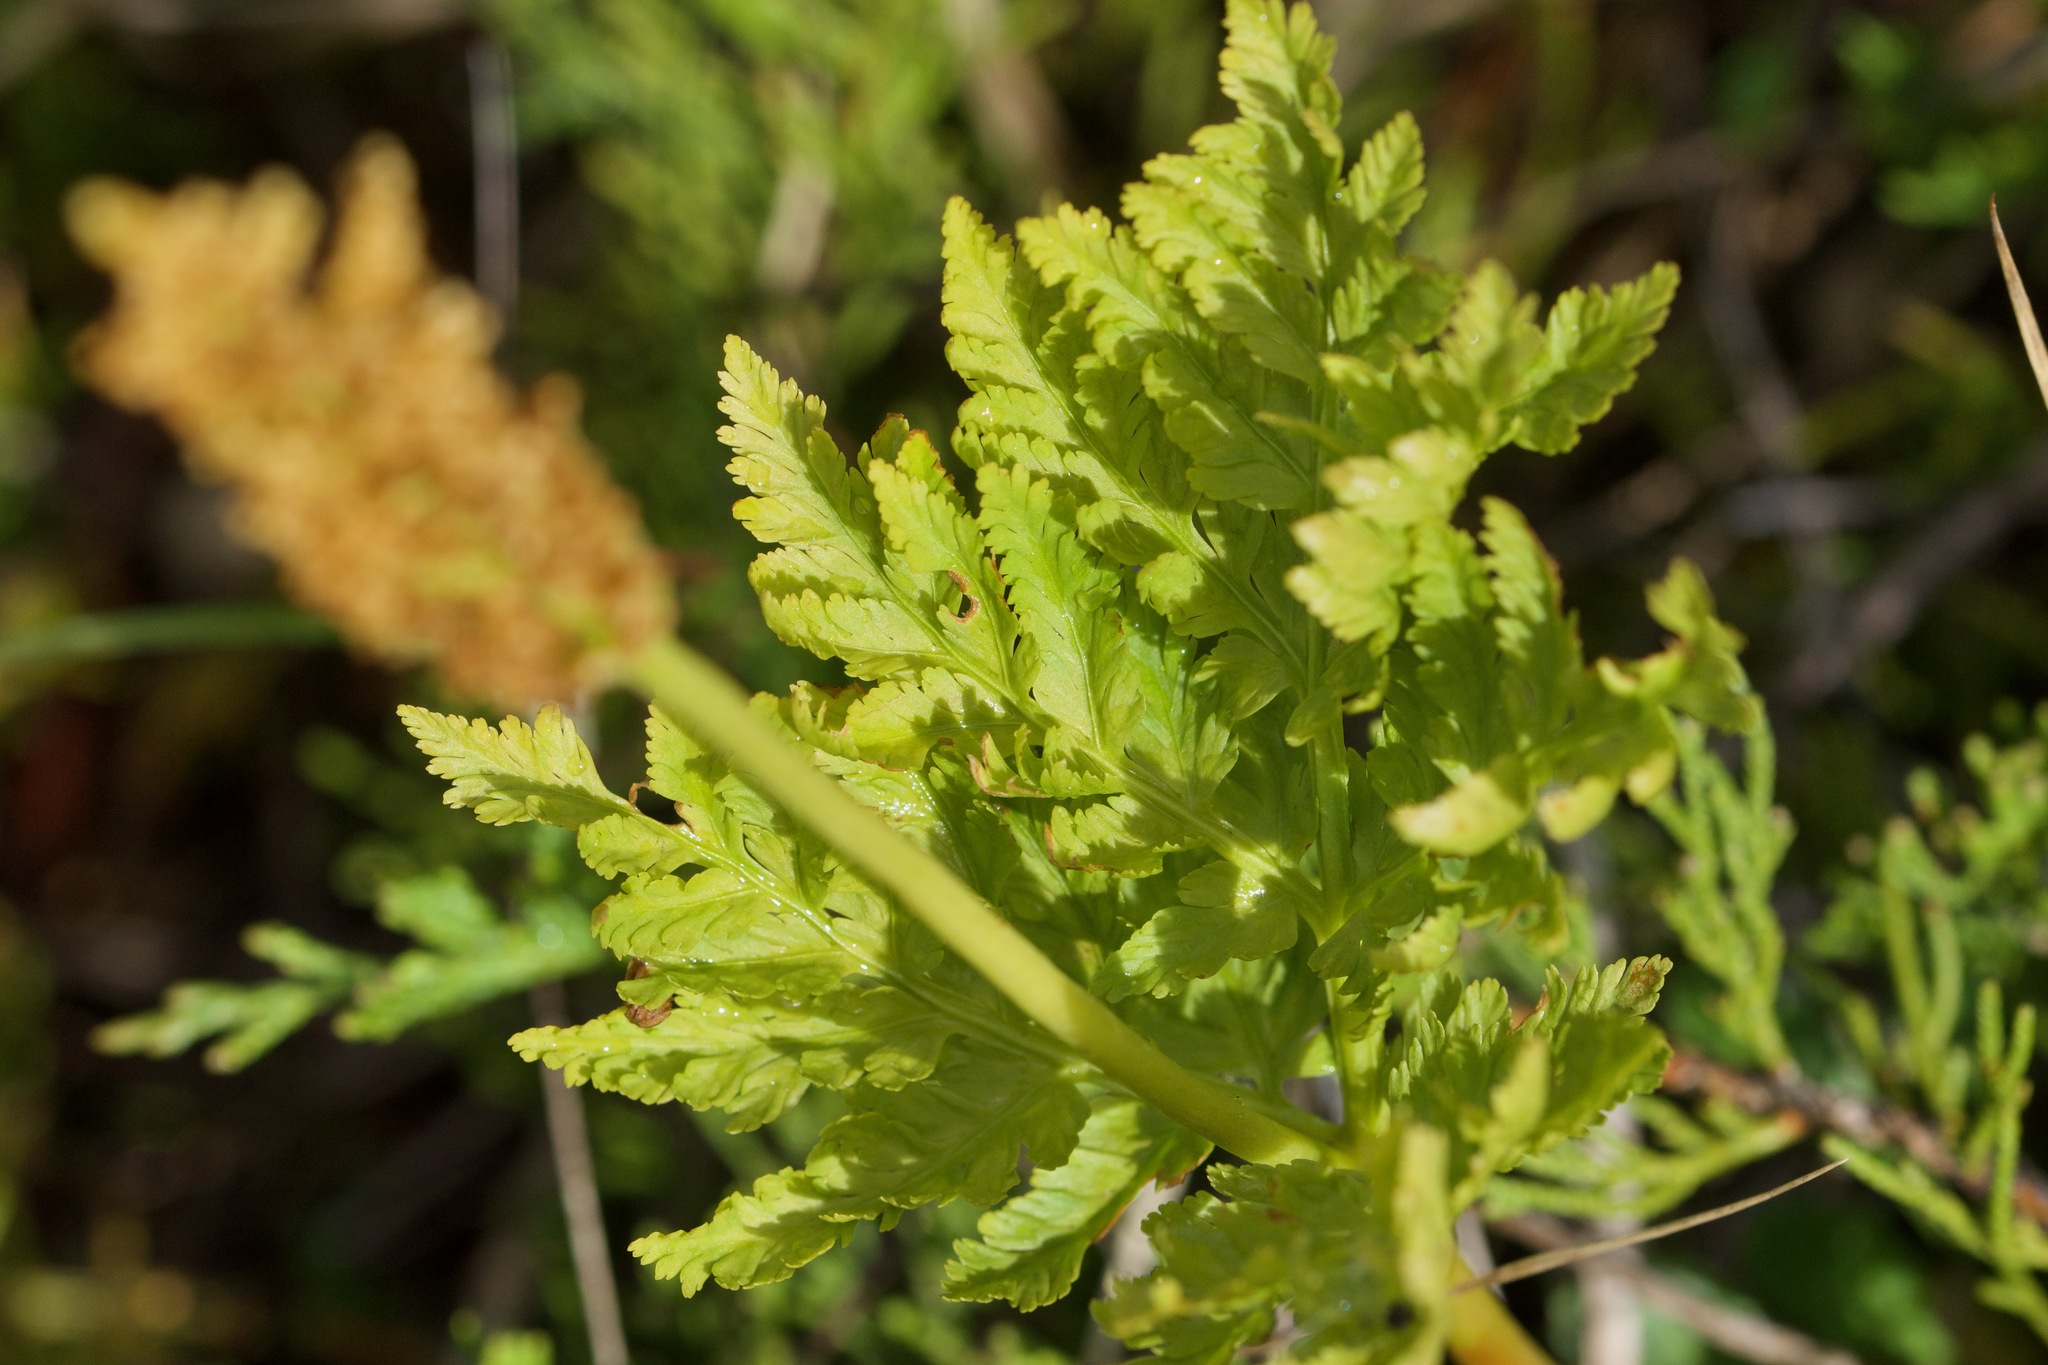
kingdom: Plantae
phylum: Tracheophyta
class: Polypodiopsida
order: Ophioglossales
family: Ophioglossaceae
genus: Botrypus
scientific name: Botrypus virginianus
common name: Common grapefern
